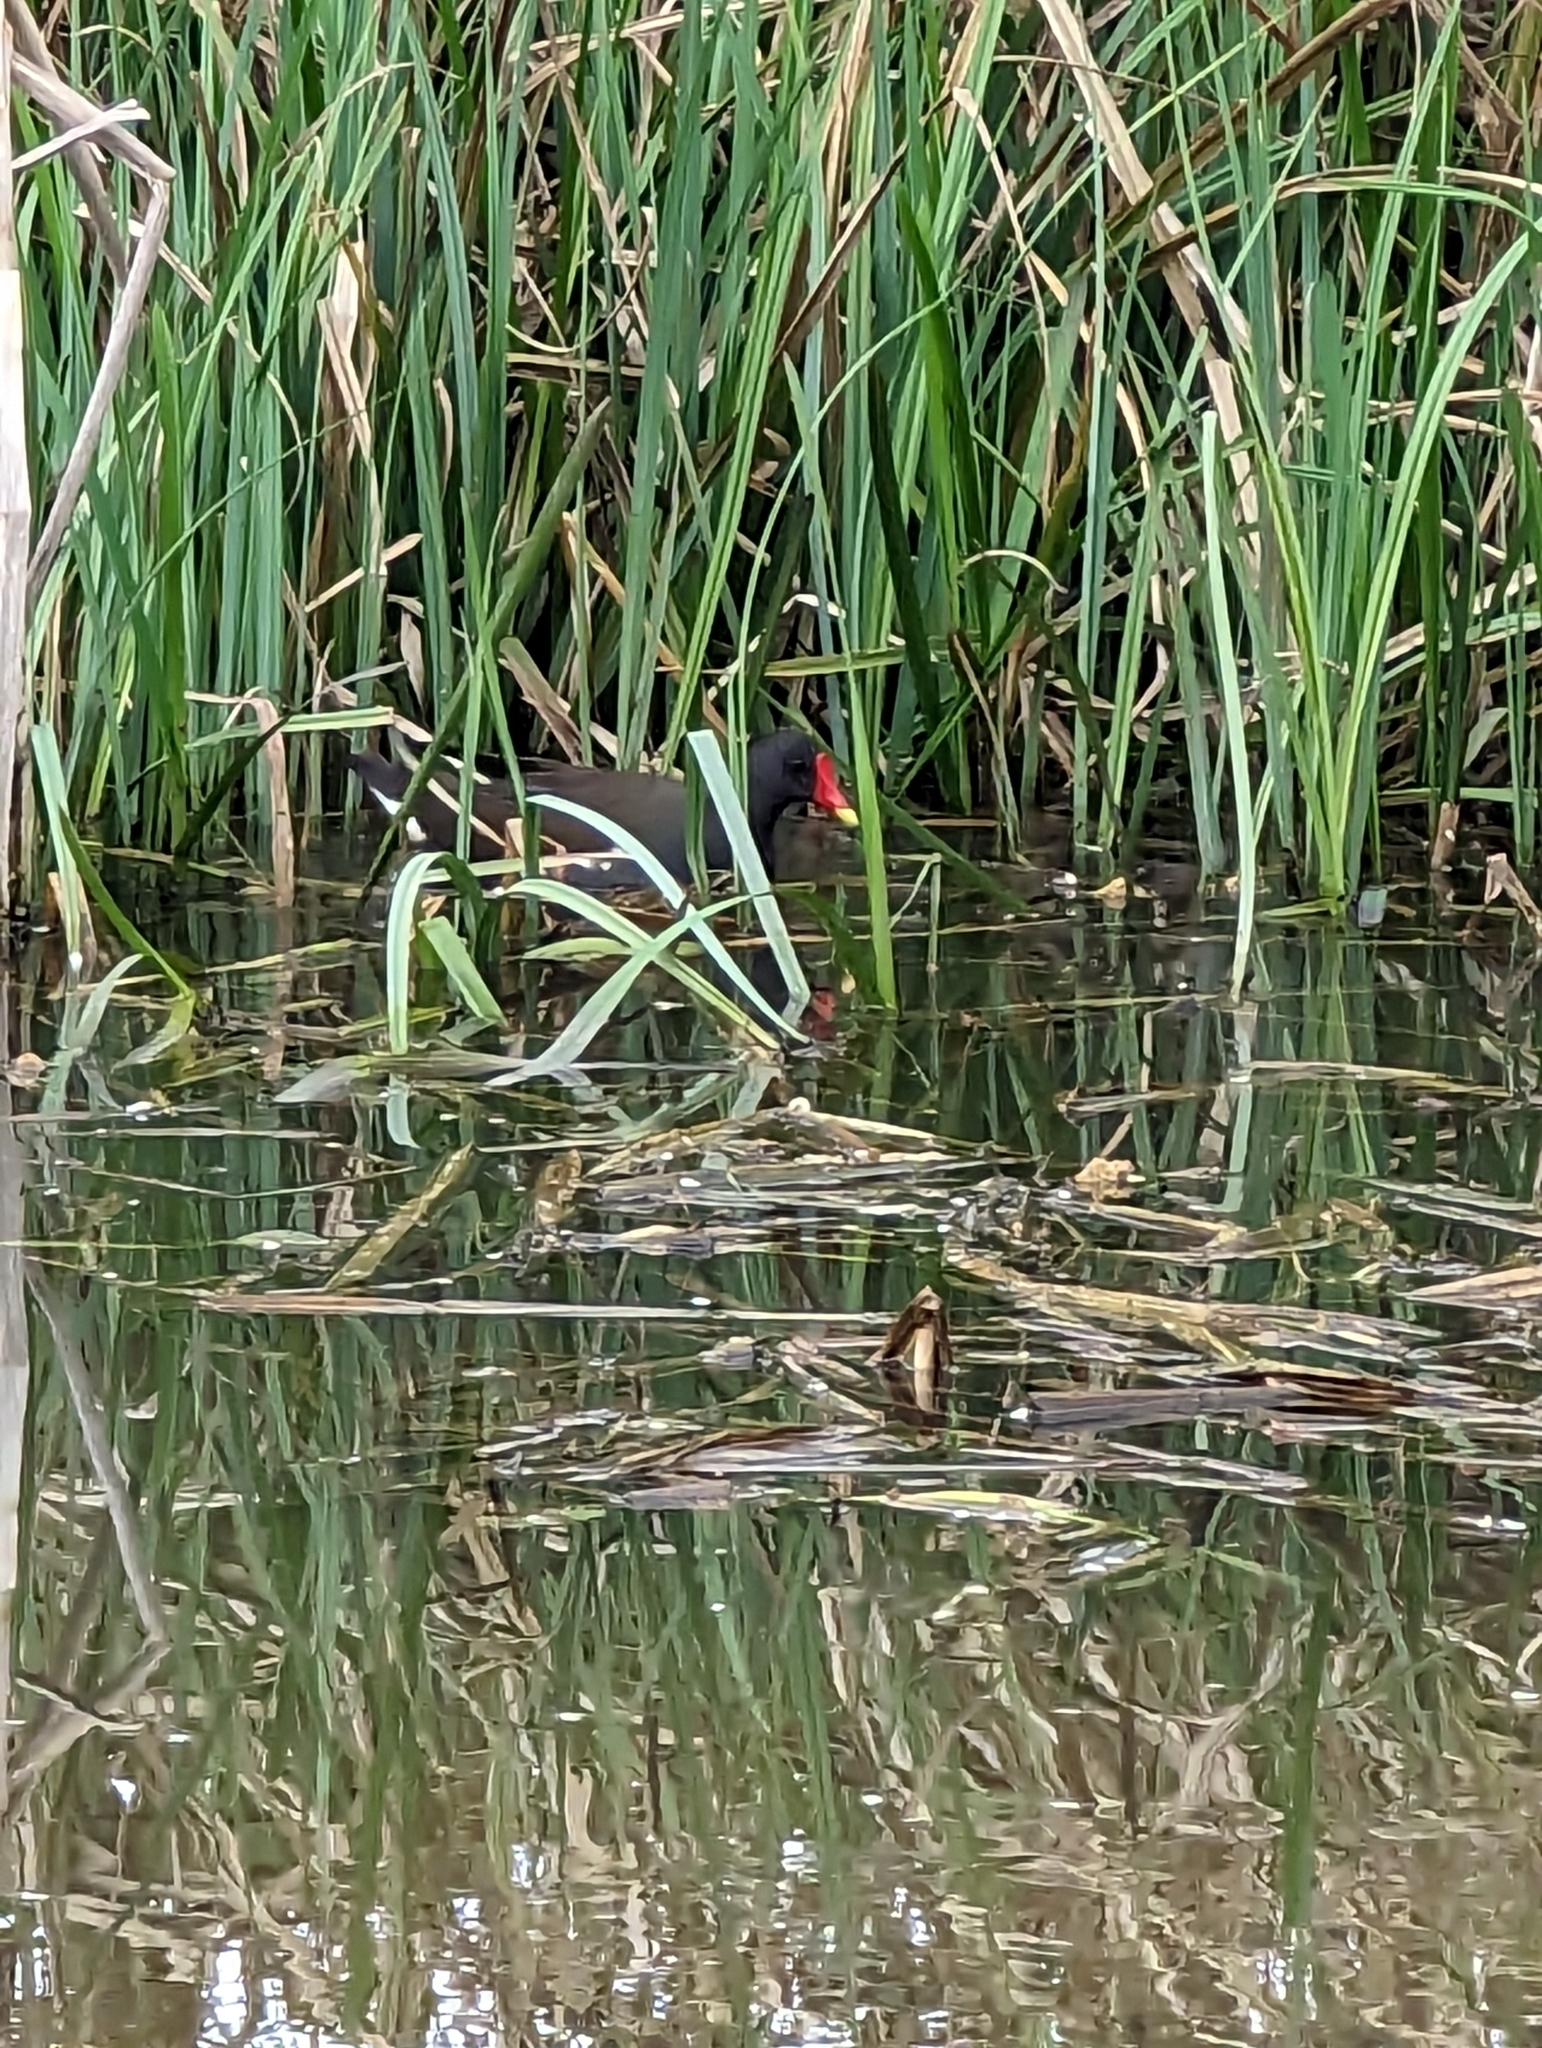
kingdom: Animalia
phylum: Chordata
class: Aves
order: Gruiformes
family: Rallidae
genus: Gallinula
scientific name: Gallinula chloropus
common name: Common moorhen
